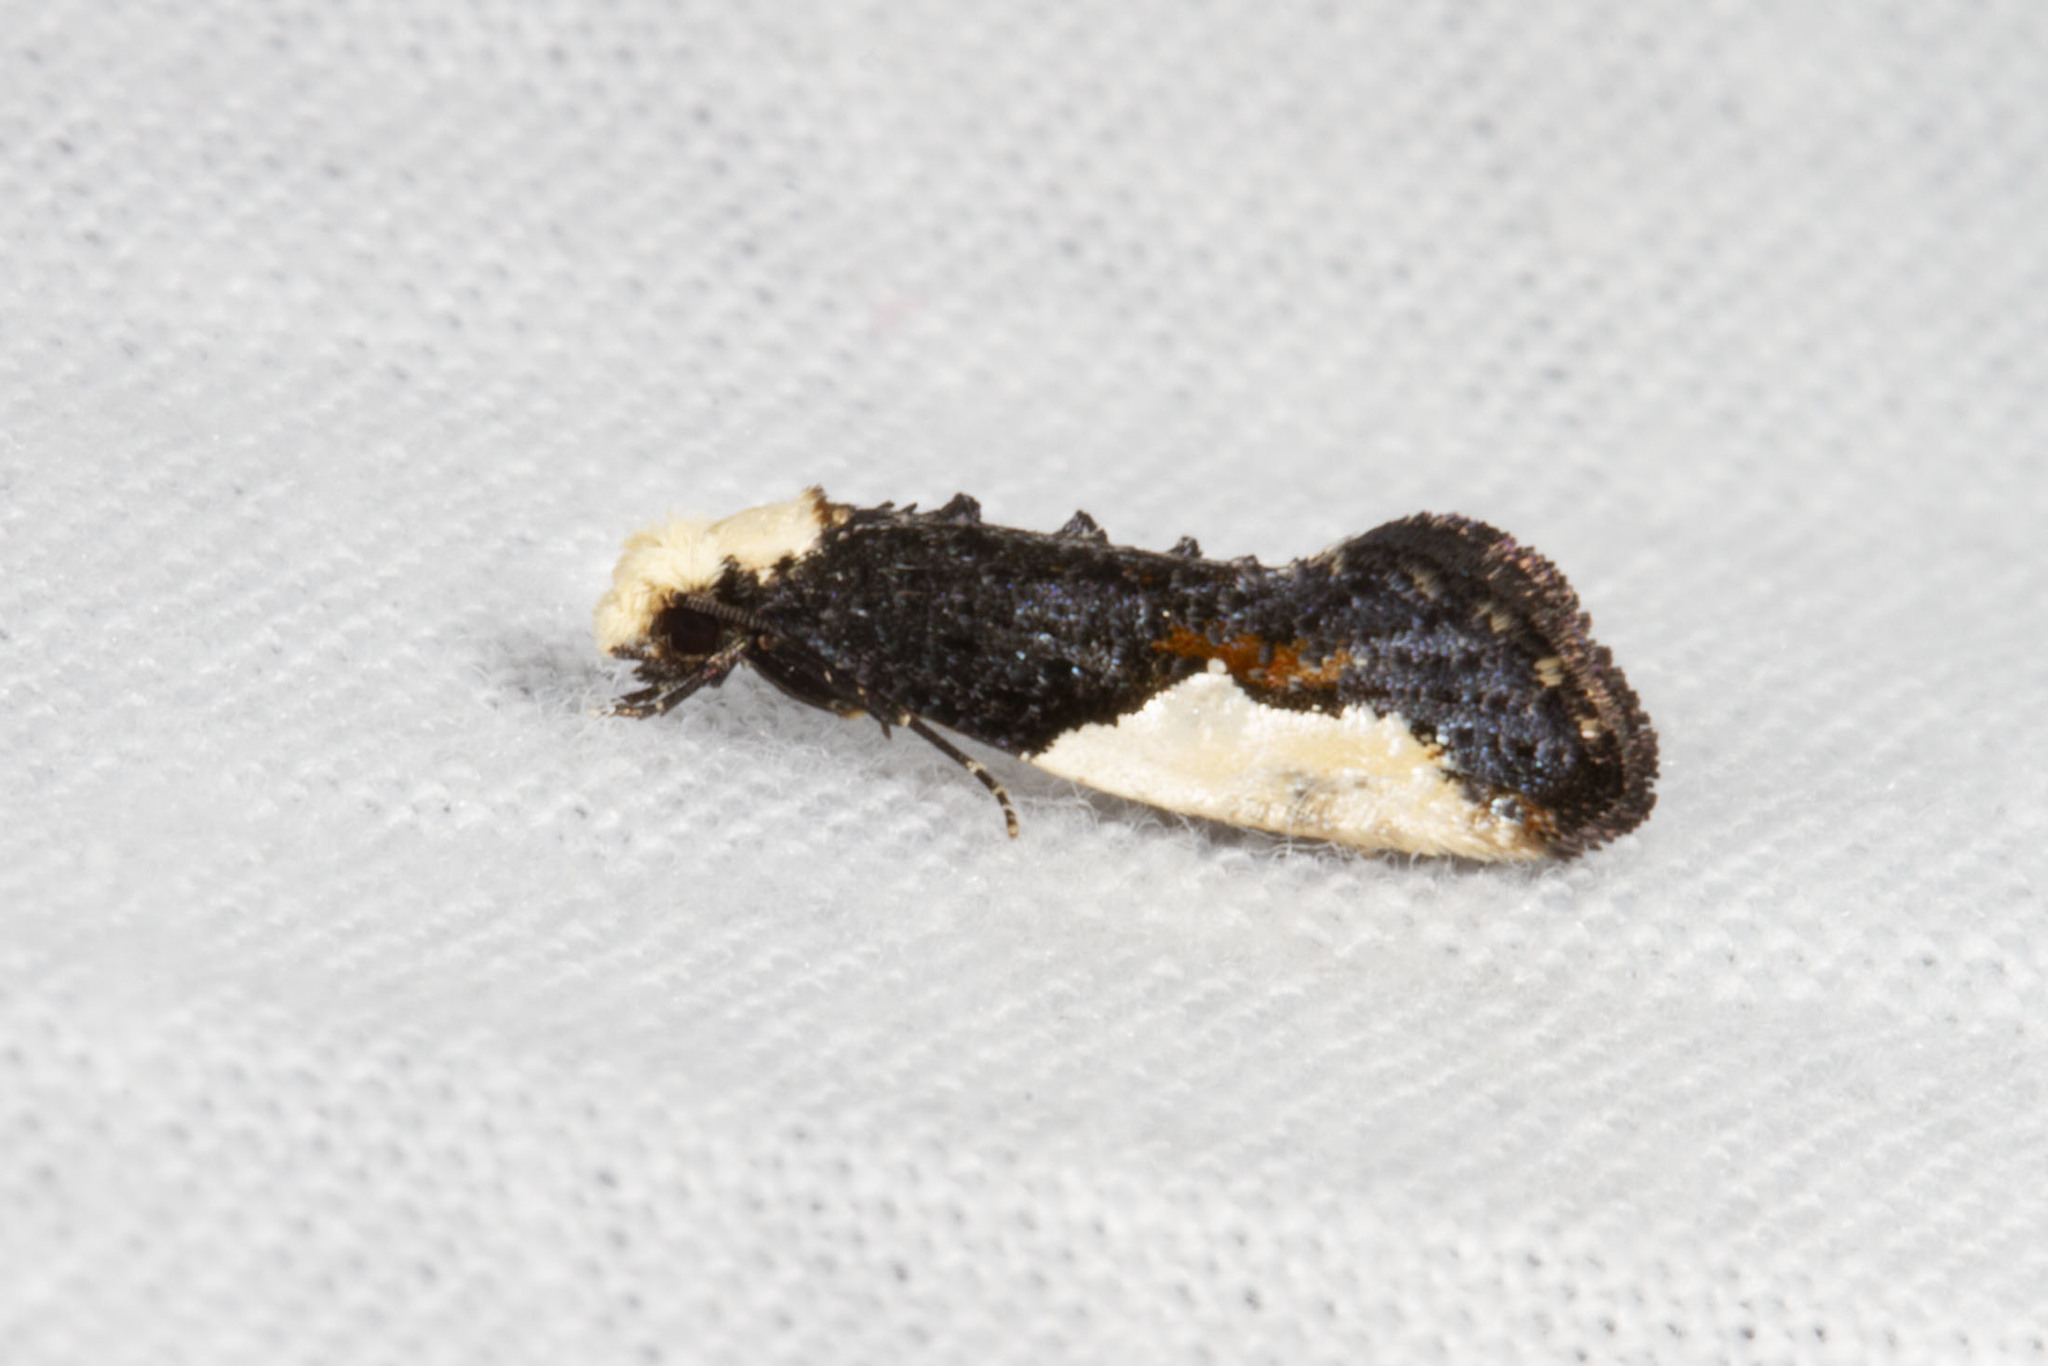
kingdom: Animalia
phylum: Arthropoda
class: Insecta
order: Lepidoptera
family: Tineidae
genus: Monopis
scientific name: Monopis longella
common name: Pavlovski's monopis moth
